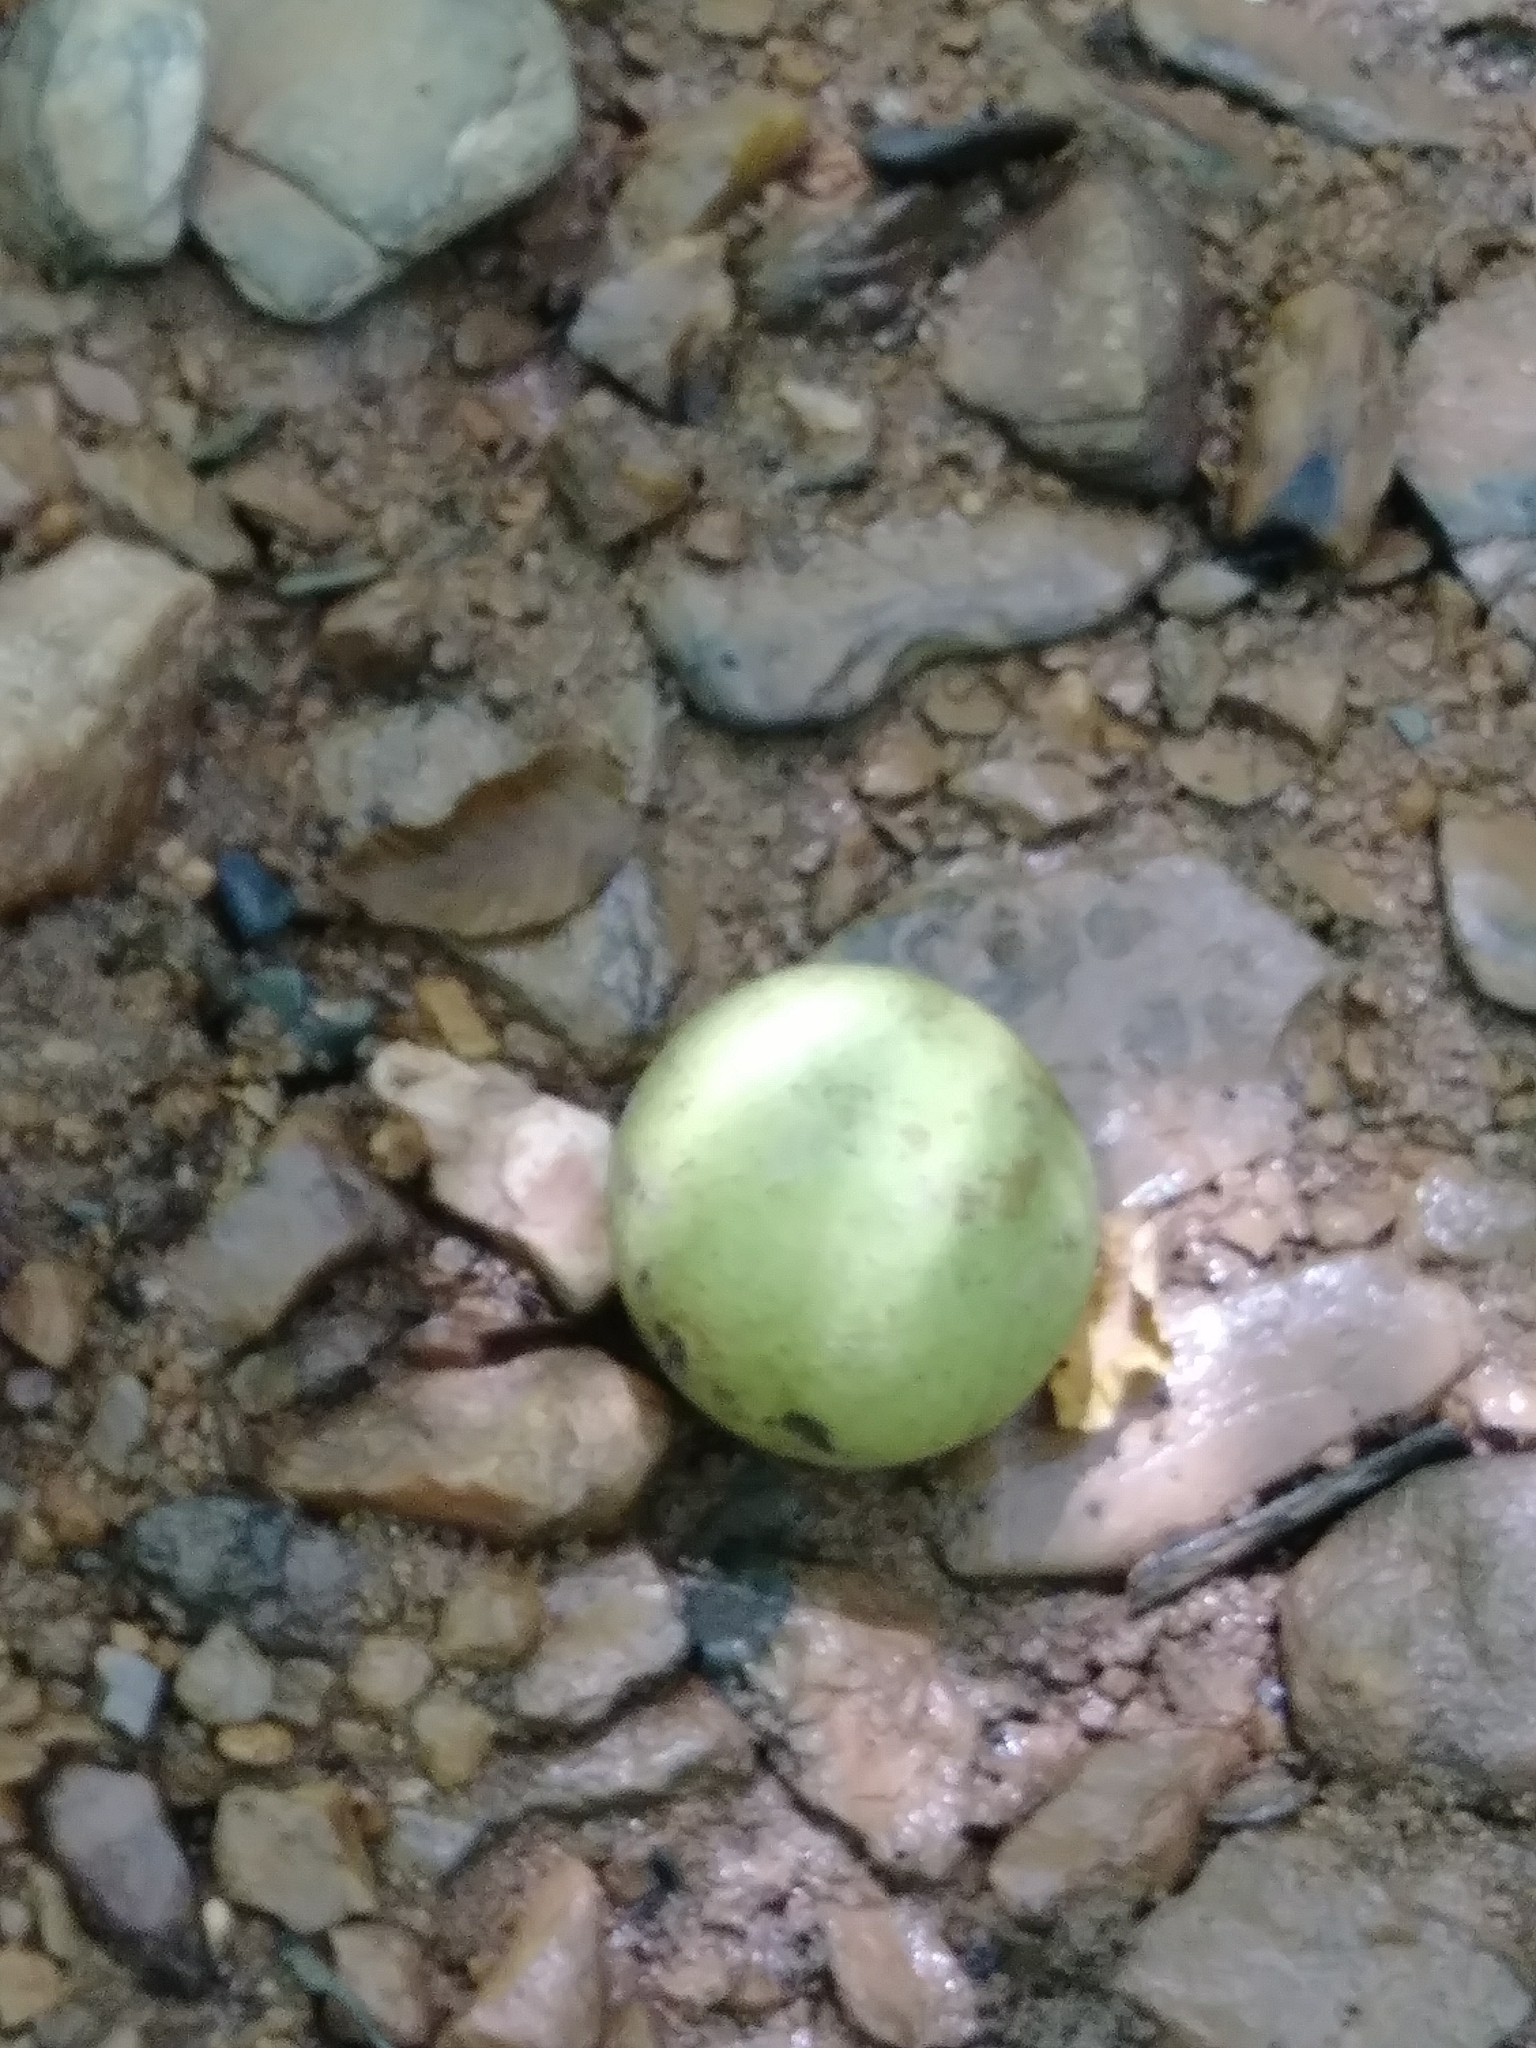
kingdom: Plantae
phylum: Tracheophyta
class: Magnoliopsida
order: Fagales
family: Juglandaceae
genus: Juglans
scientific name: Juglans nigra
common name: Black walnut
